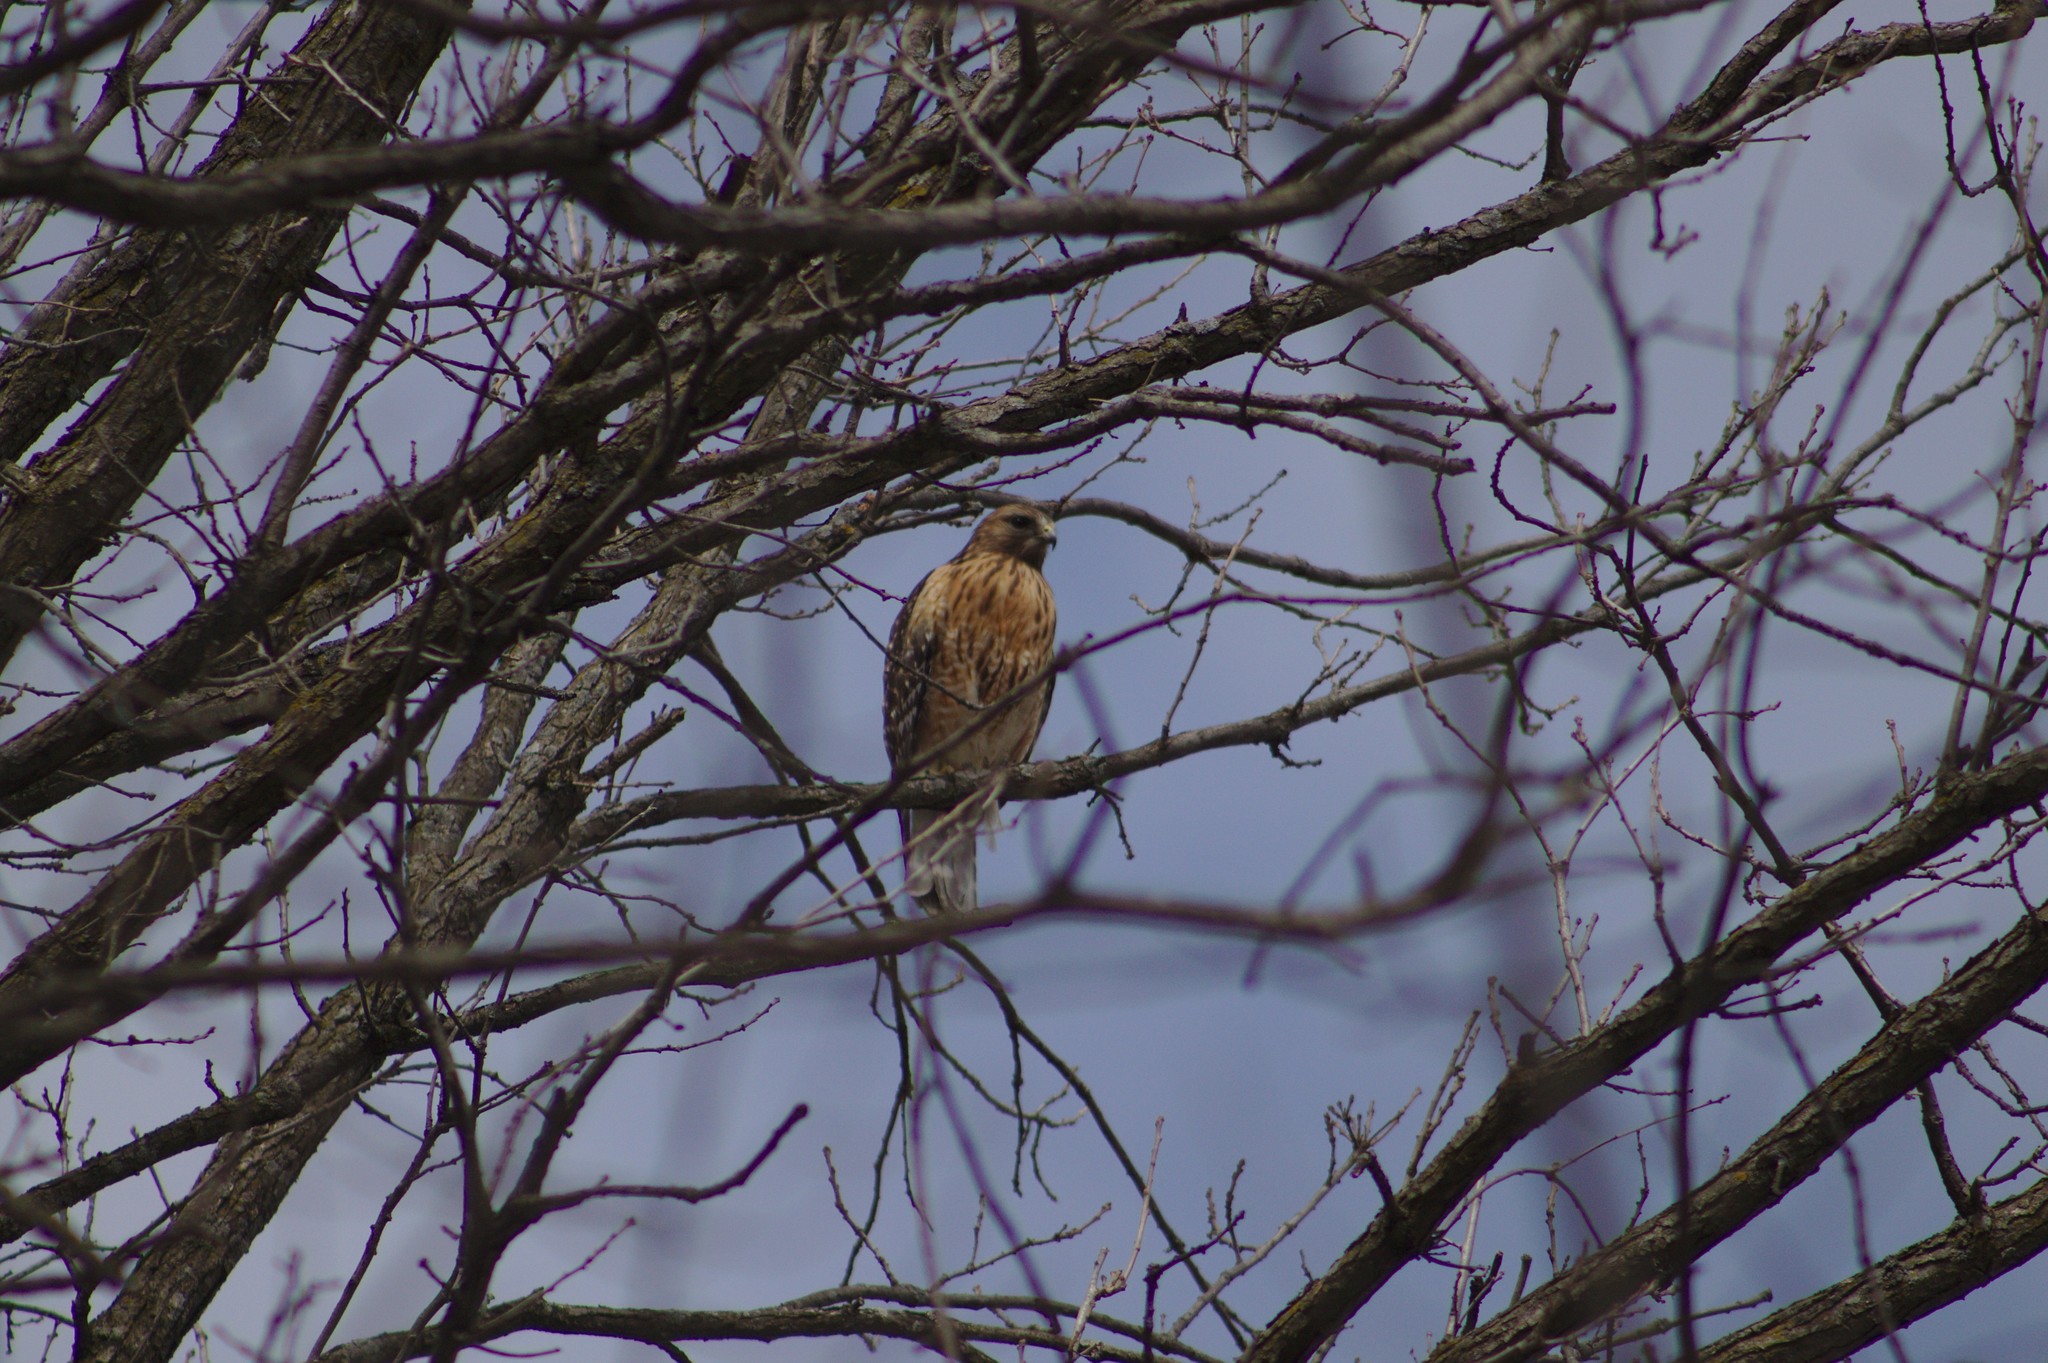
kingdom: Animalia
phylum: Chordata
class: Aves
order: Accipitriformes
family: Accipitridae
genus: Buteo
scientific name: Buteo lineatus
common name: Red-shouldered hawk
